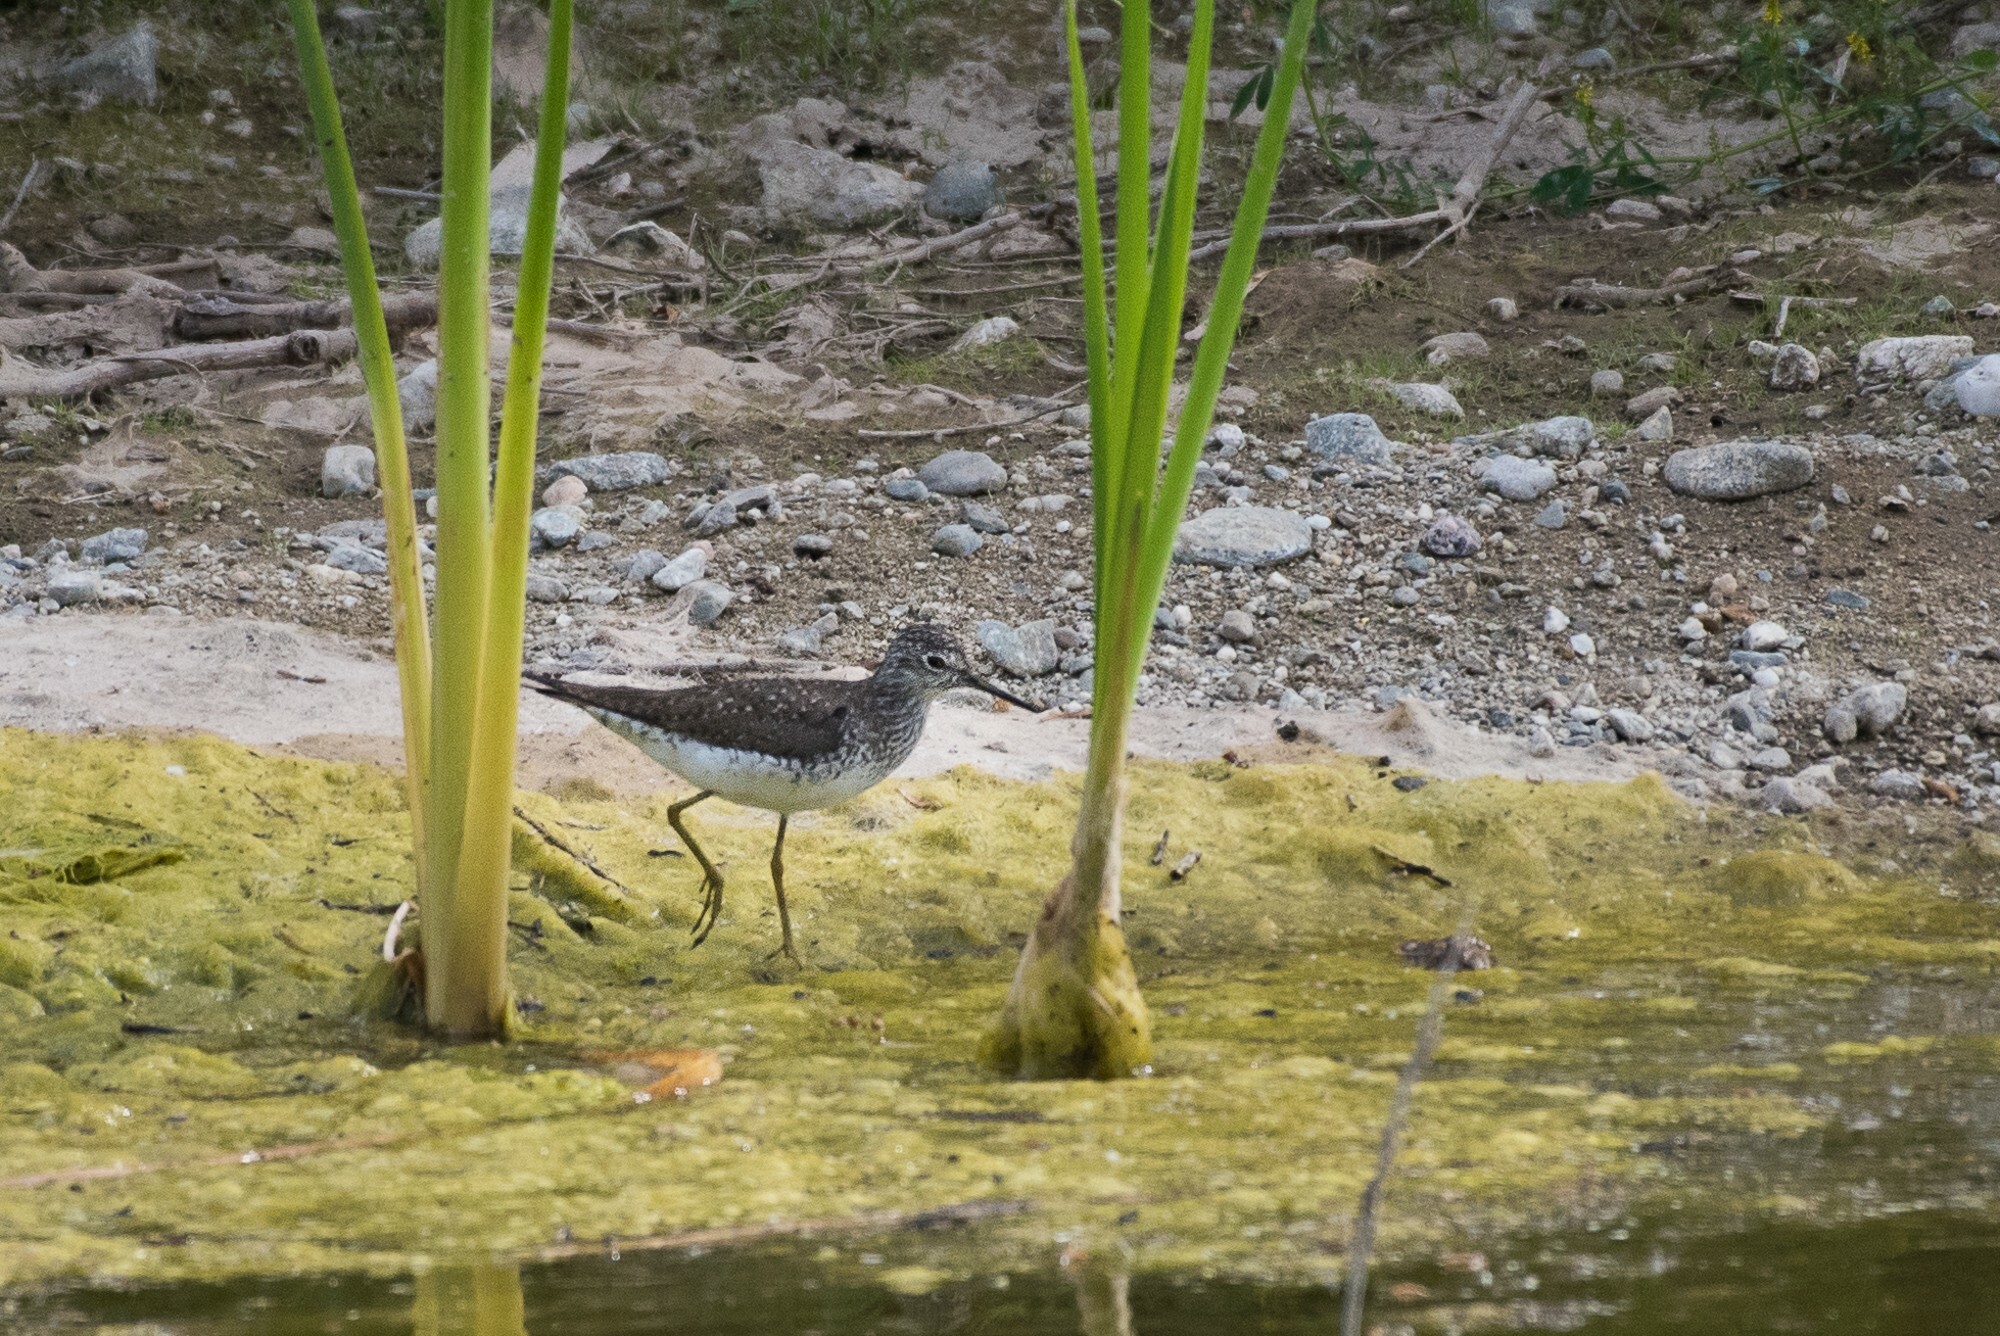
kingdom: Animalia
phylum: Chordata
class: Aves
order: Charadriiformes
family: Scolopacidae
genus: Tringa
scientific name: Tringa solitaria
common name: Solitary sandpiper
